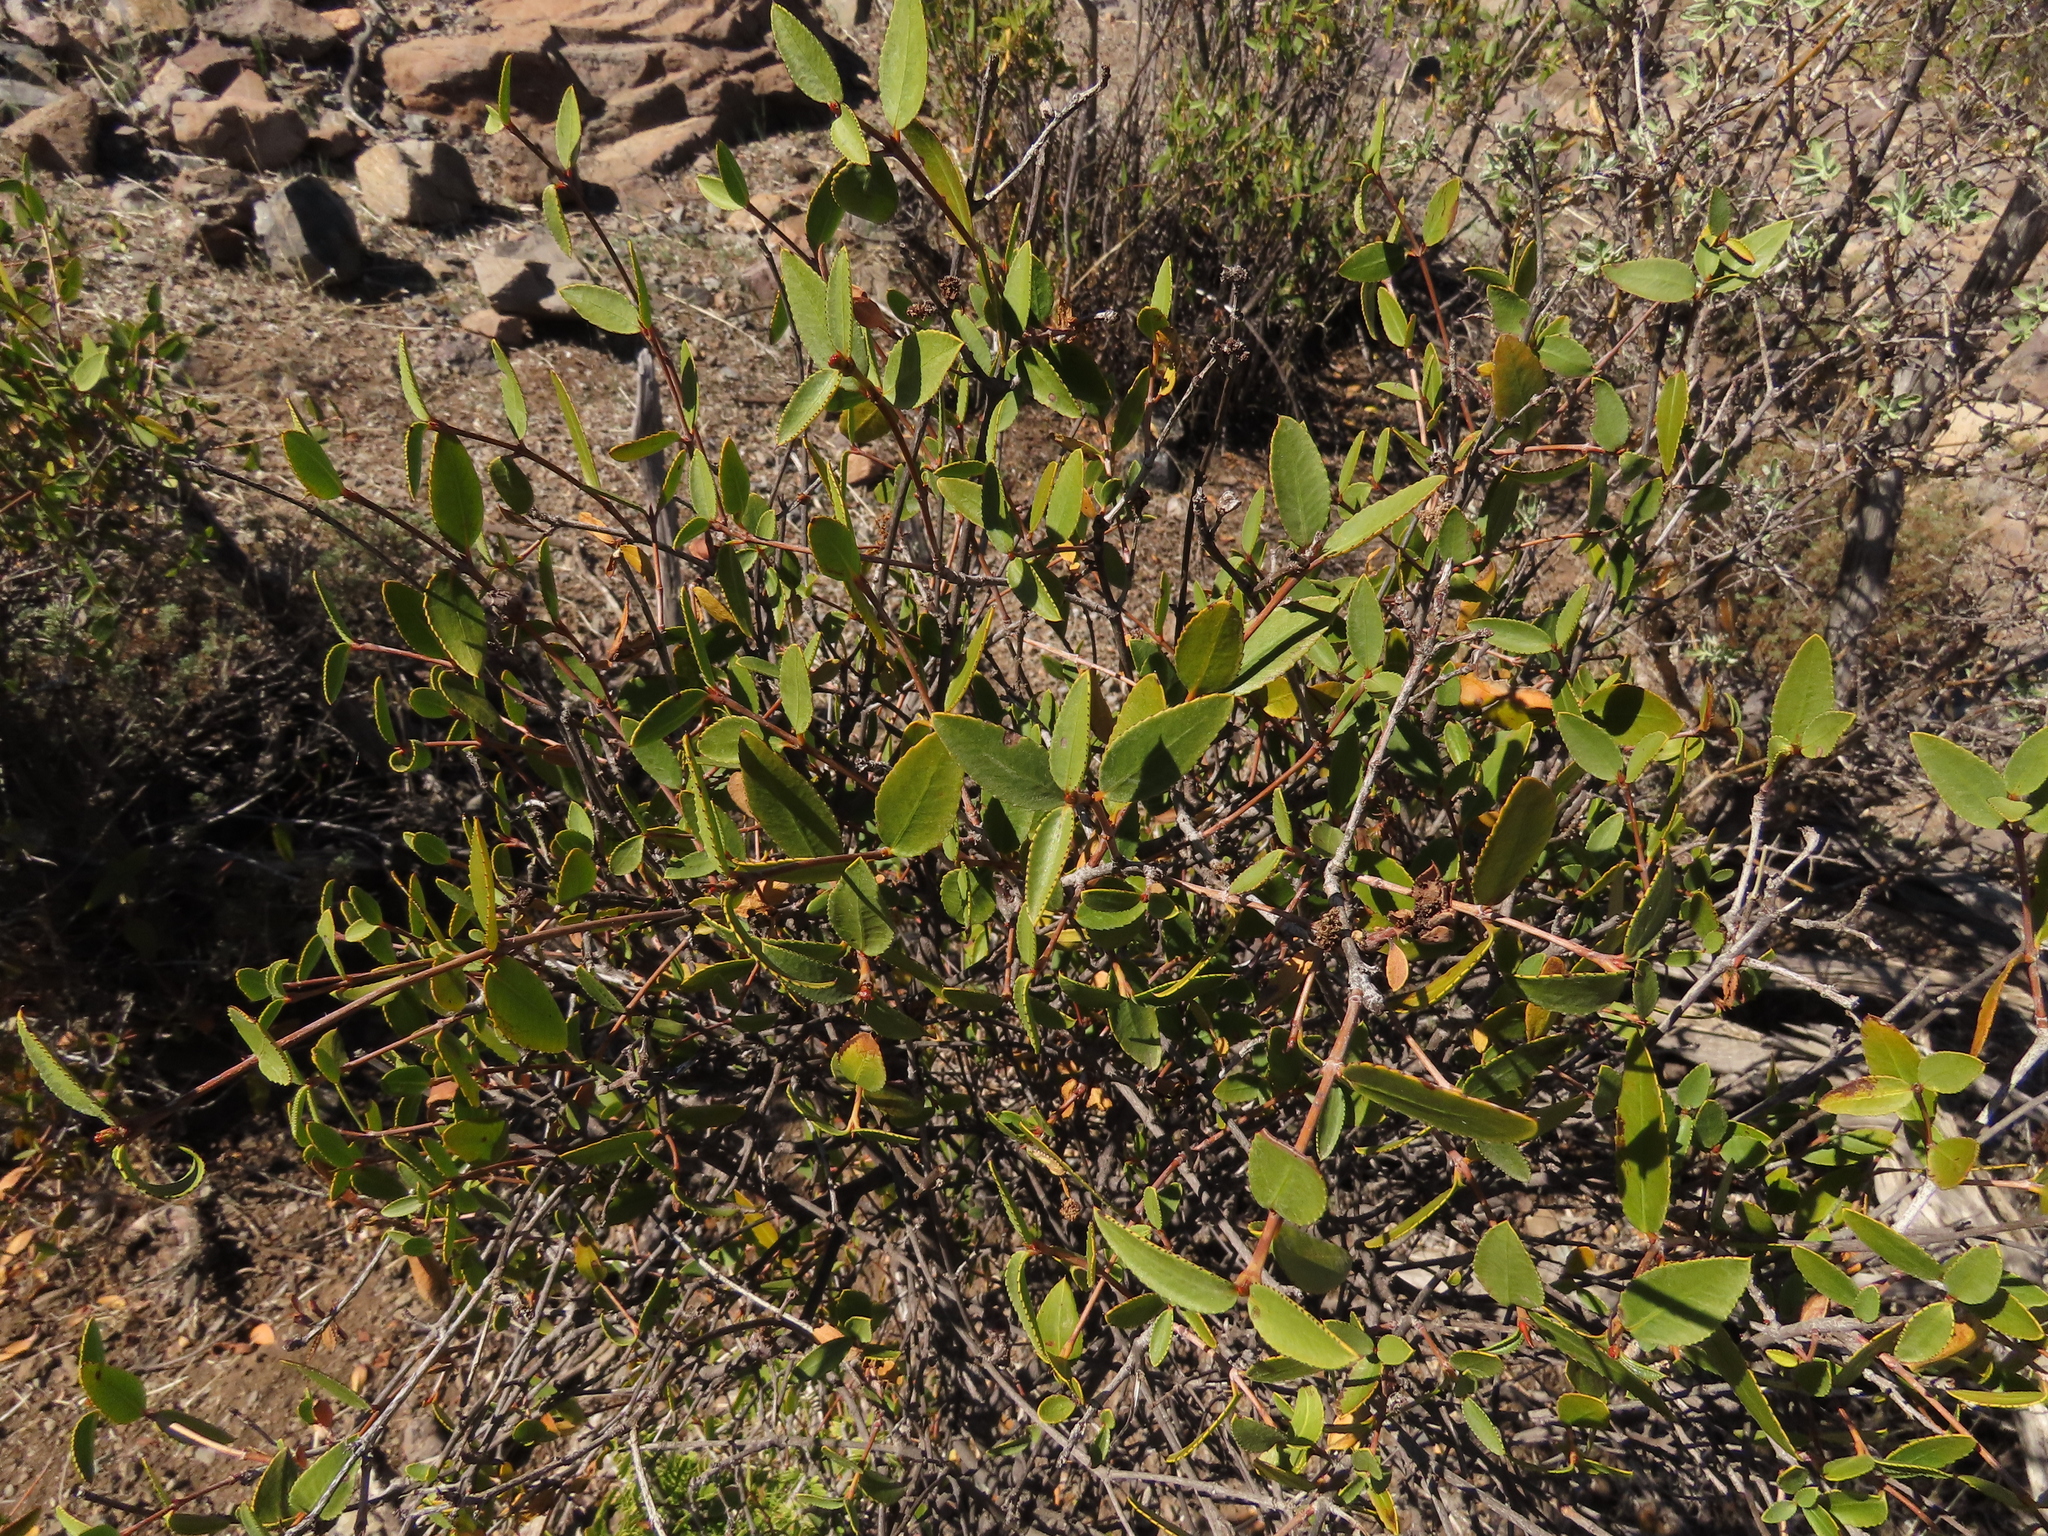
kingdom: Plantae
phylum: Tracheophyta
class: Magnoliopsida
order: Malpighiales
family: Euphorbiaceae
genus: Colliguaja
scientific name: Colliguaja odorifera
